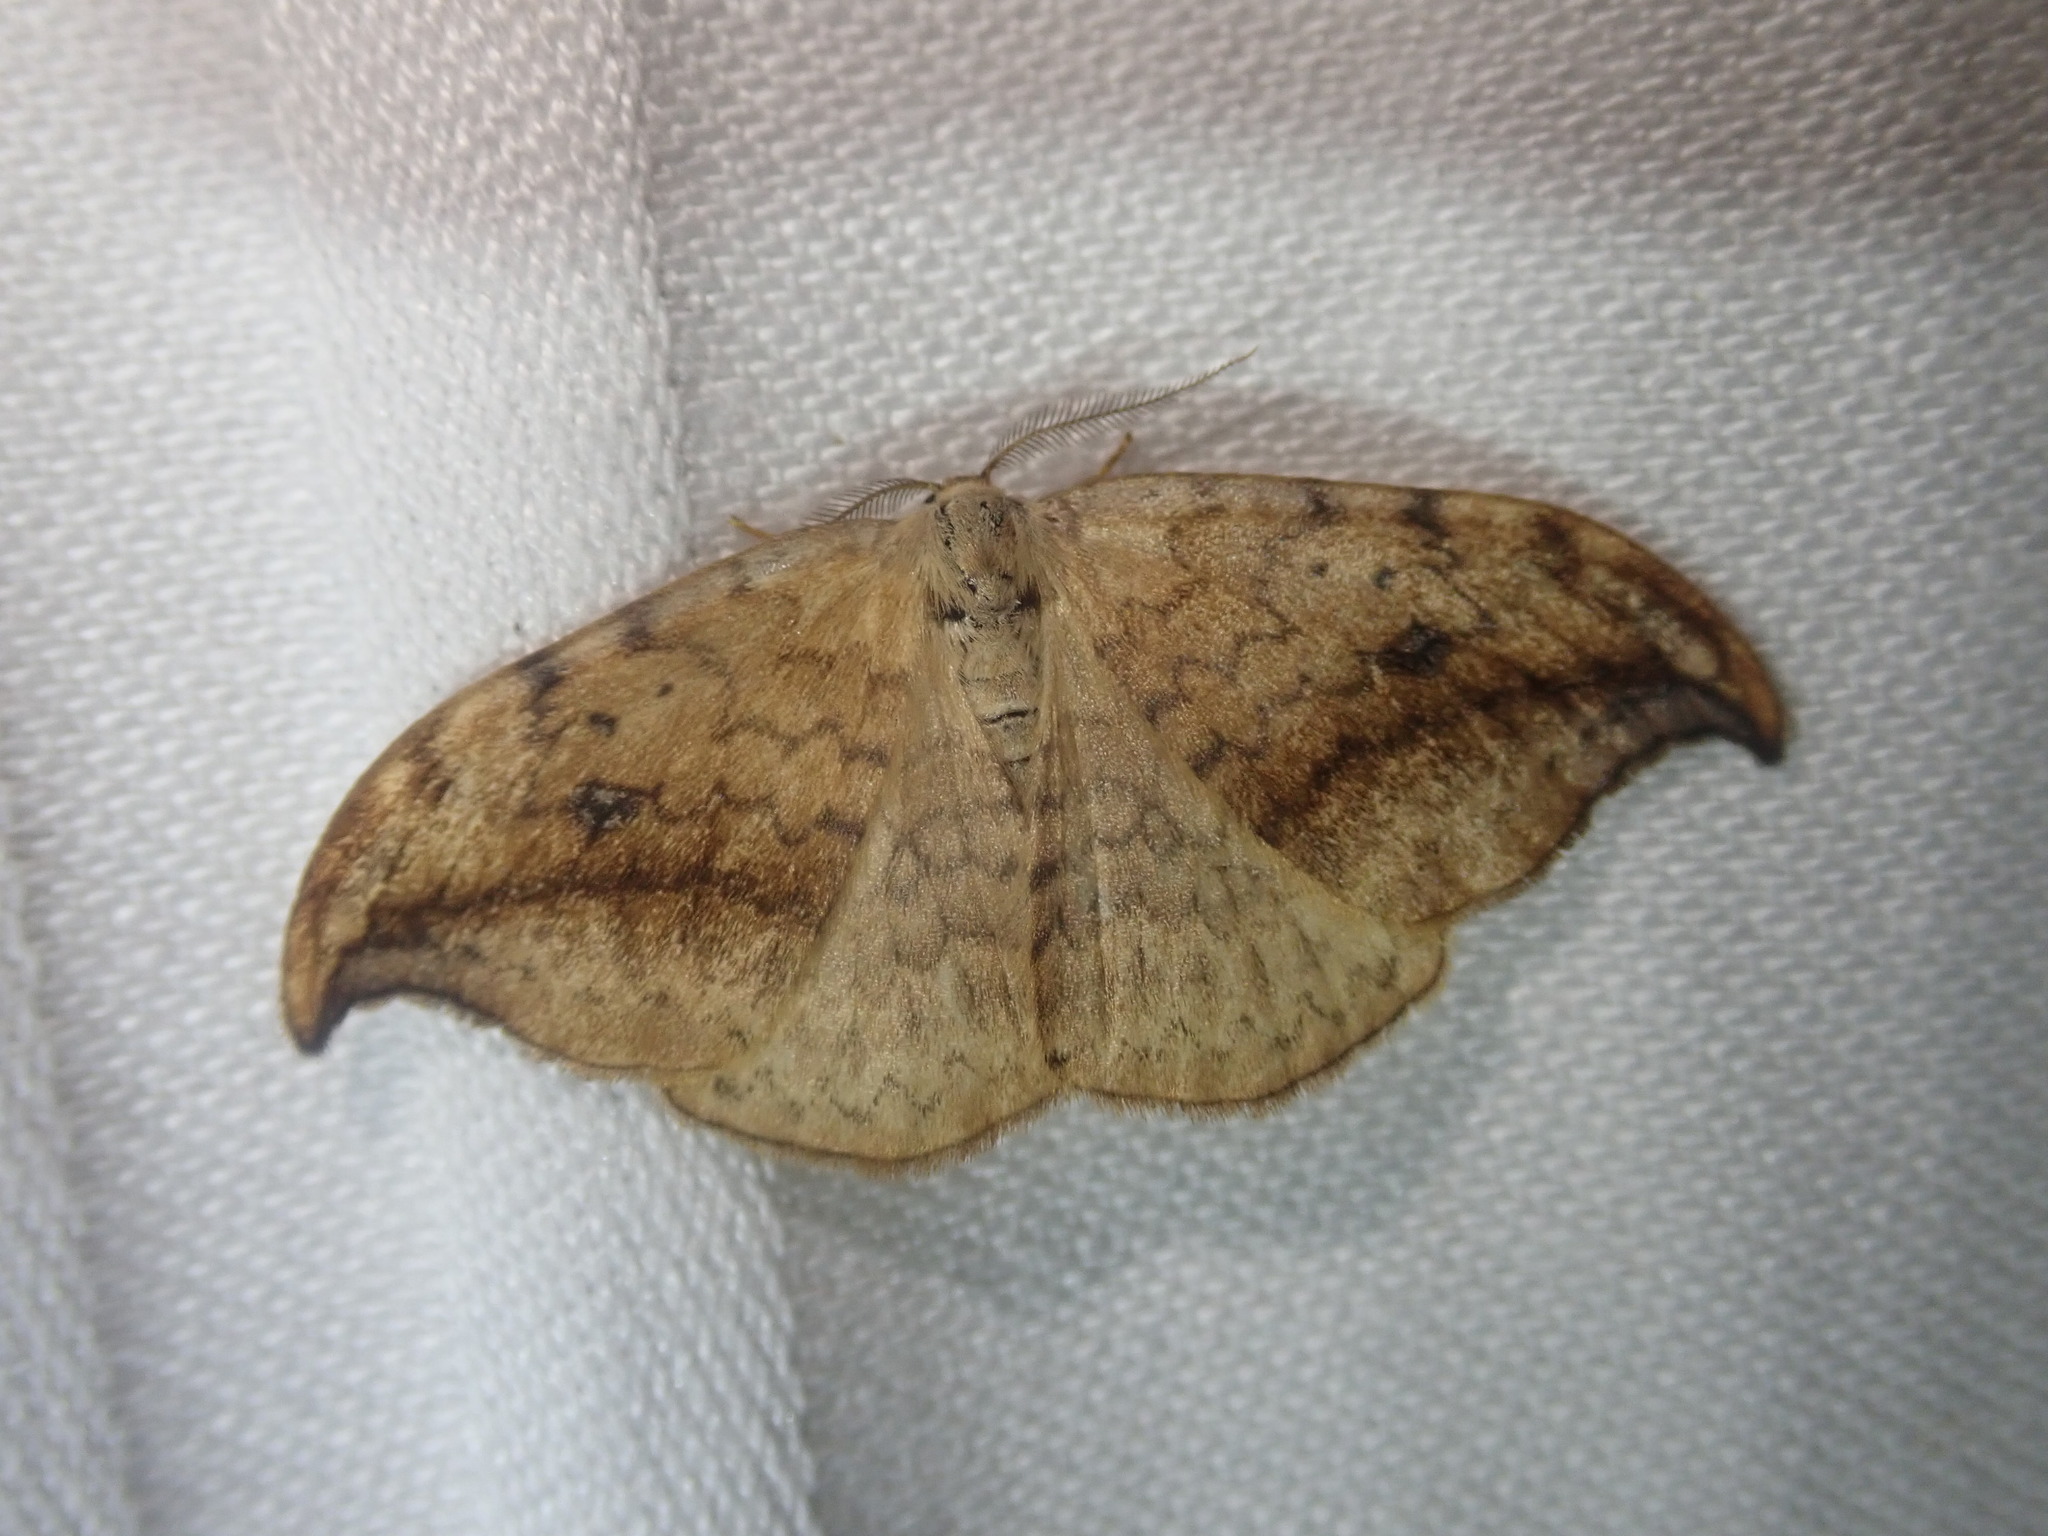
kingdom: Animalia
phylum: Arthropoda
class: Insecta
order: Lepidoptera
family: Drepanidae
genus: Drepana
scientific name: Drepana falcataria
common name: Pebble hook-tip
